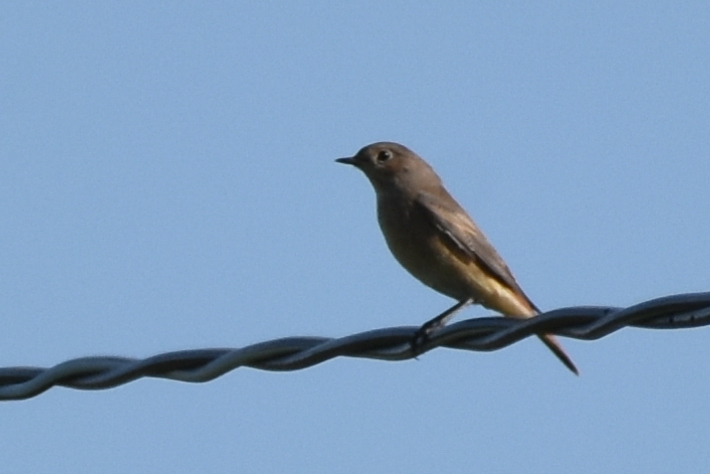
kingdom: Animalia
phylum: Chordata
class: Aves
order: Passeriformes
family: Muscicapidae
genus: Phoenicurus
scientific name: Phoenicurus phoenicurus
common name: Common redstart
